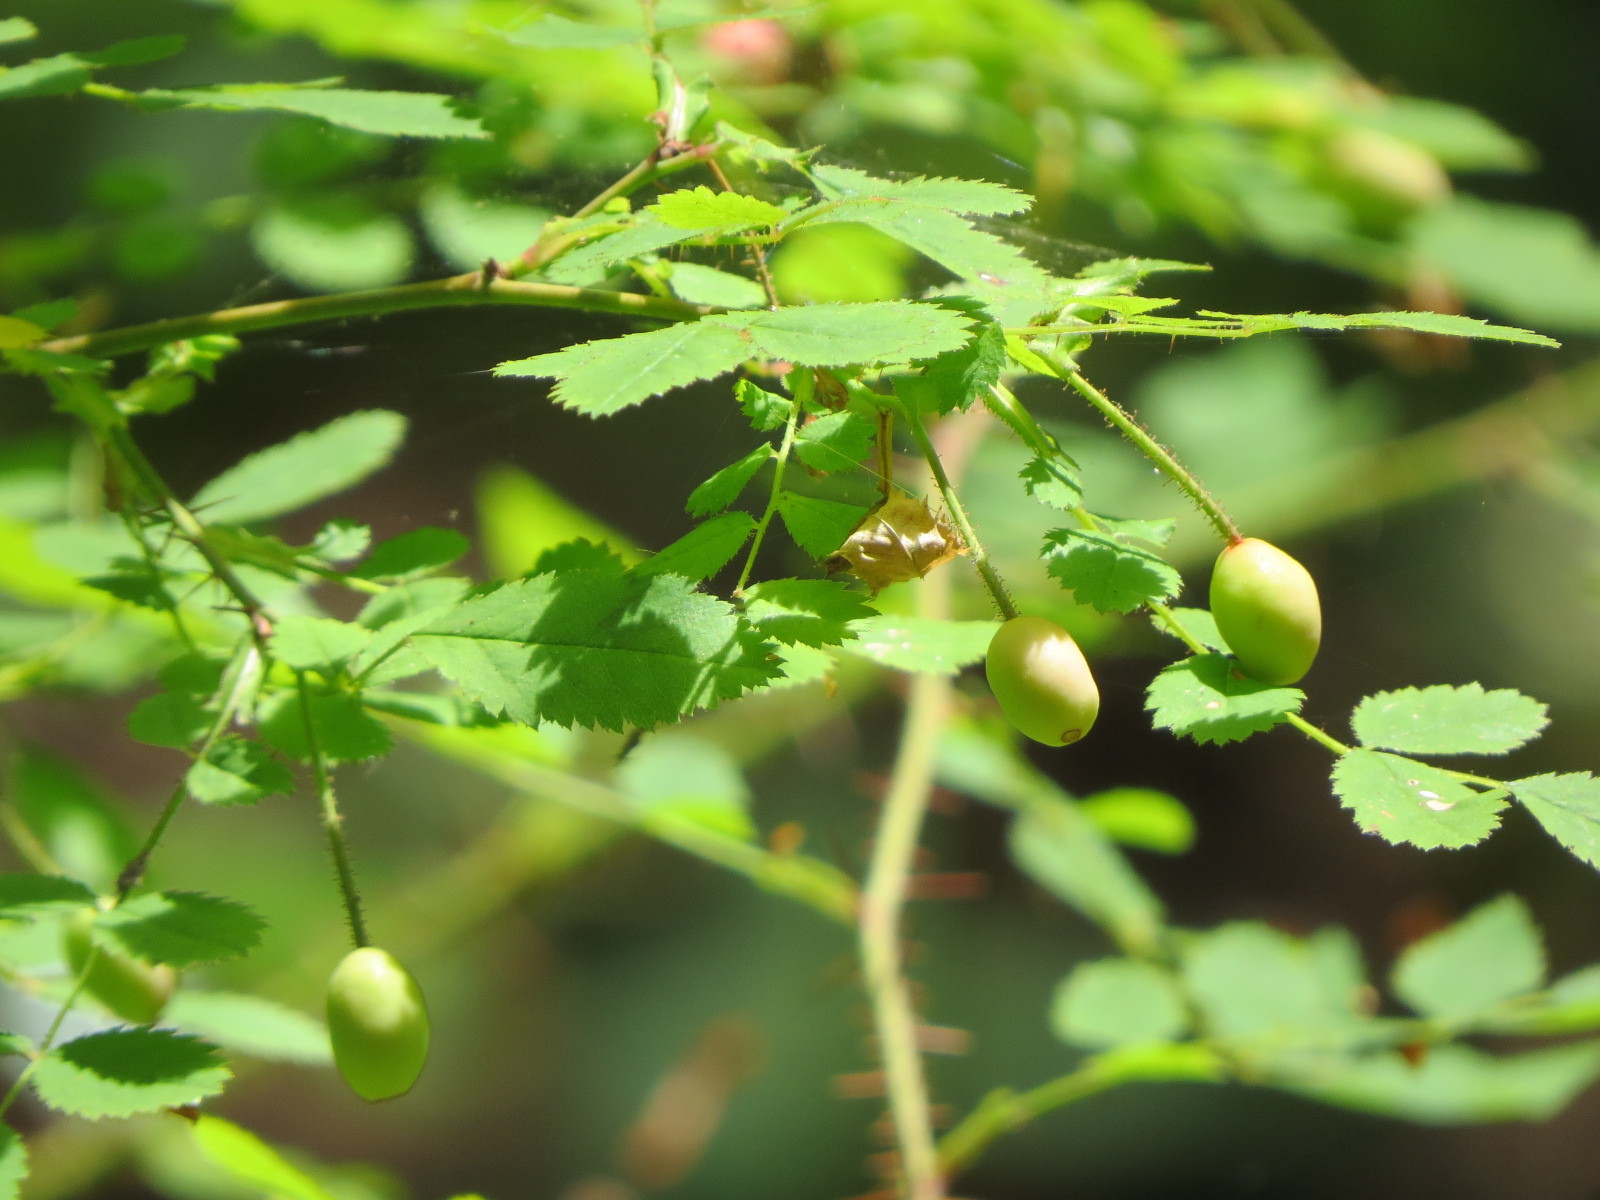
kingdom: Plantae
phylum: Tracheophyta
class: Magnoliopsida
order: Rosales
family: Rosaceae
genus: Rosa
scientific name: Rosa gymnocarpa
